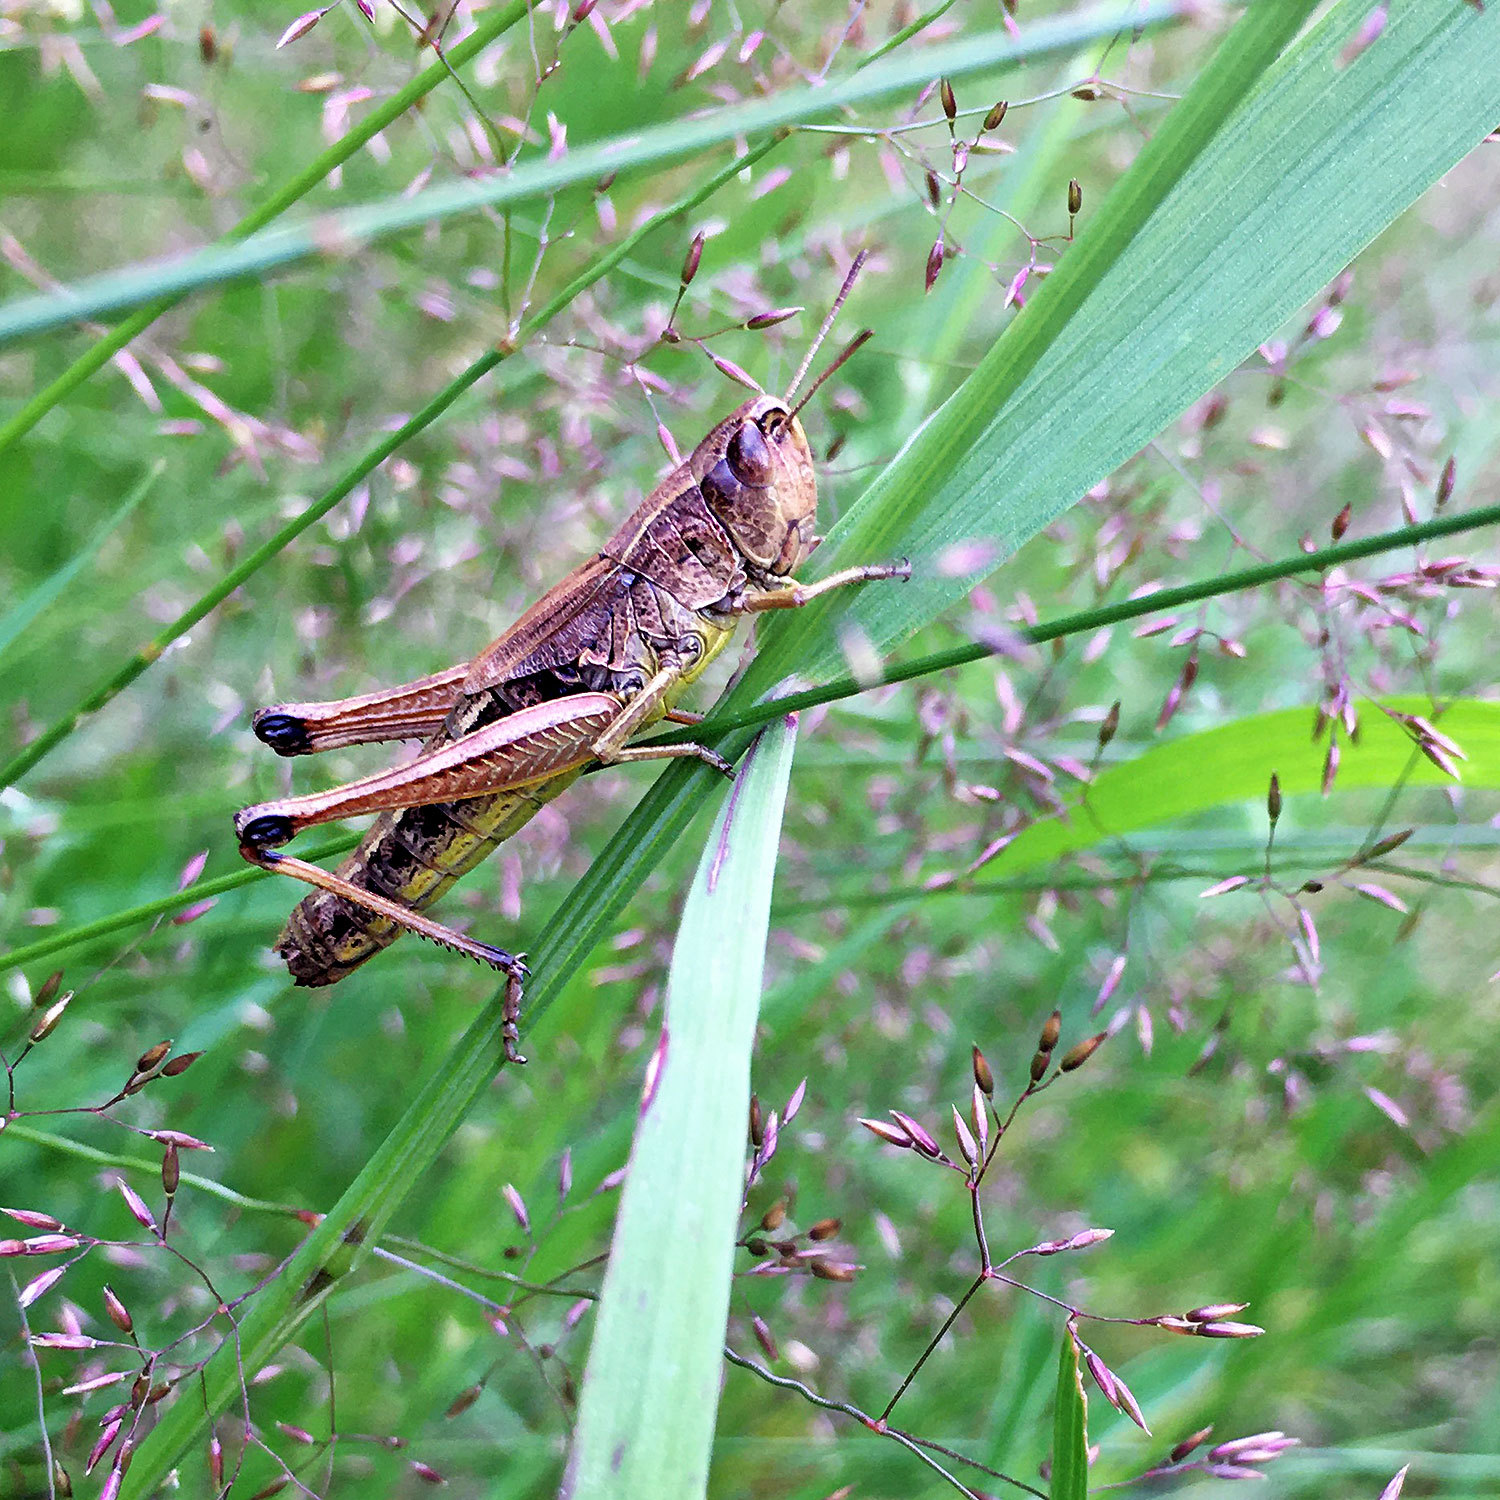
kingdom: Animalia
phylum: Arthropoda
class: Insecta
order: Orthoptera
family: Acrididae
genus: Pseudochorthippus
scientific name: Pseudochorthippus parallelus
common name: Meadow grasshopper
